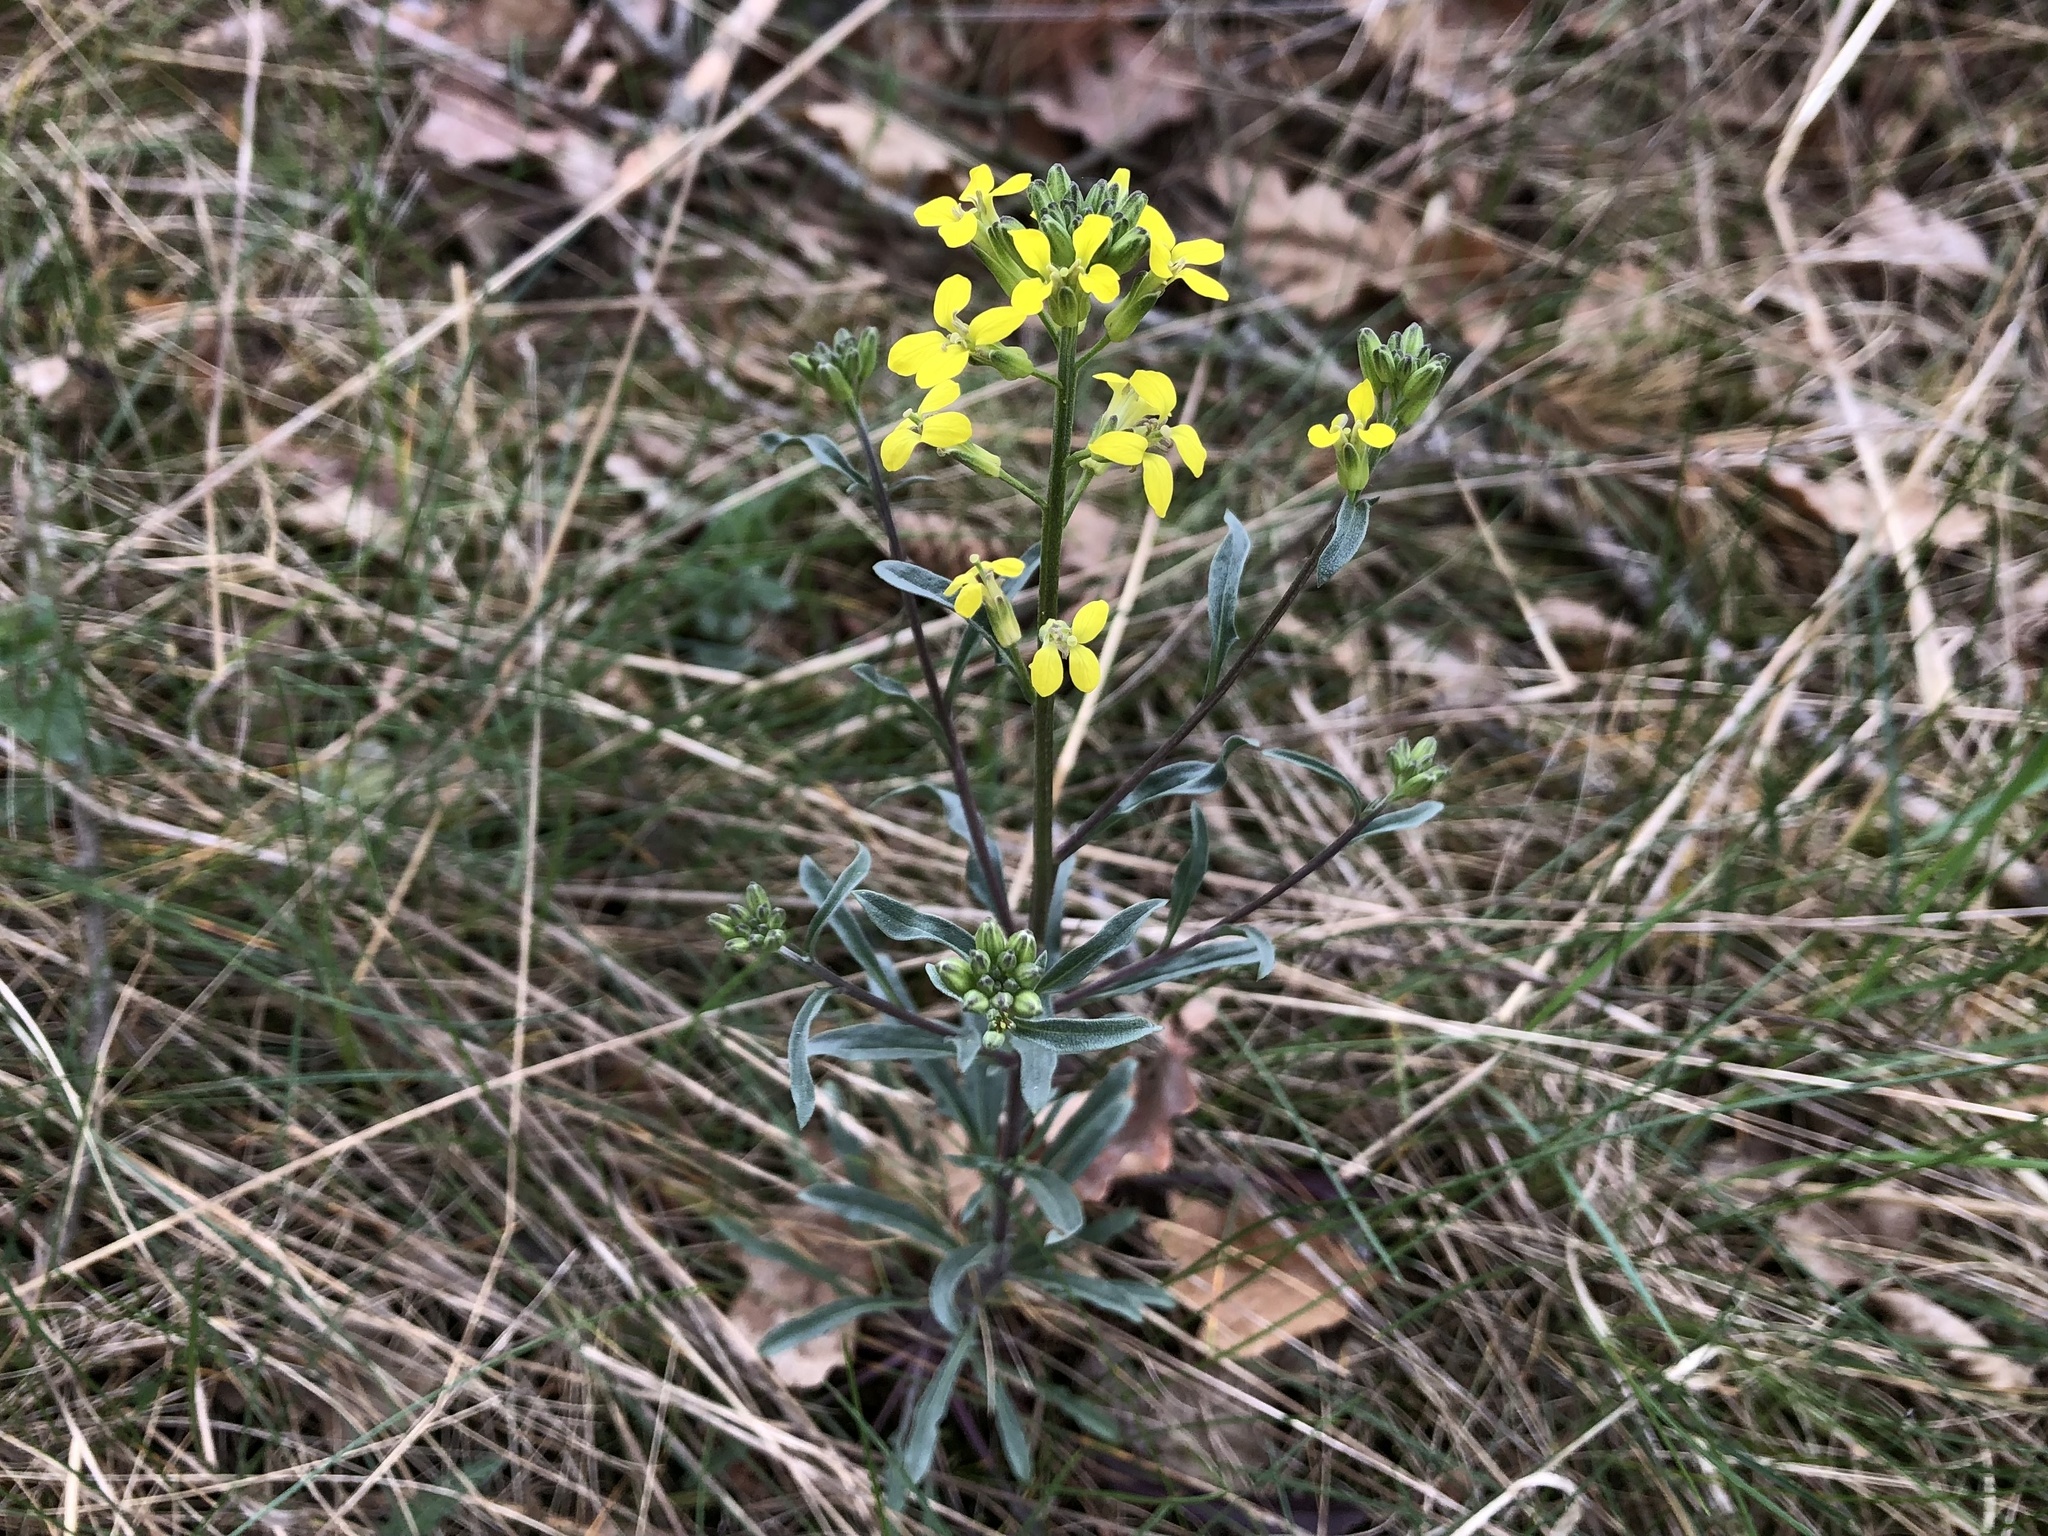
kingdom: Plantae
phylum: Tracheophyta
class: Magnoliopsida
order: Brassicales
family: Brassicaceae
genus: Erysimum
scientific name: Erysimum crepidifolium
